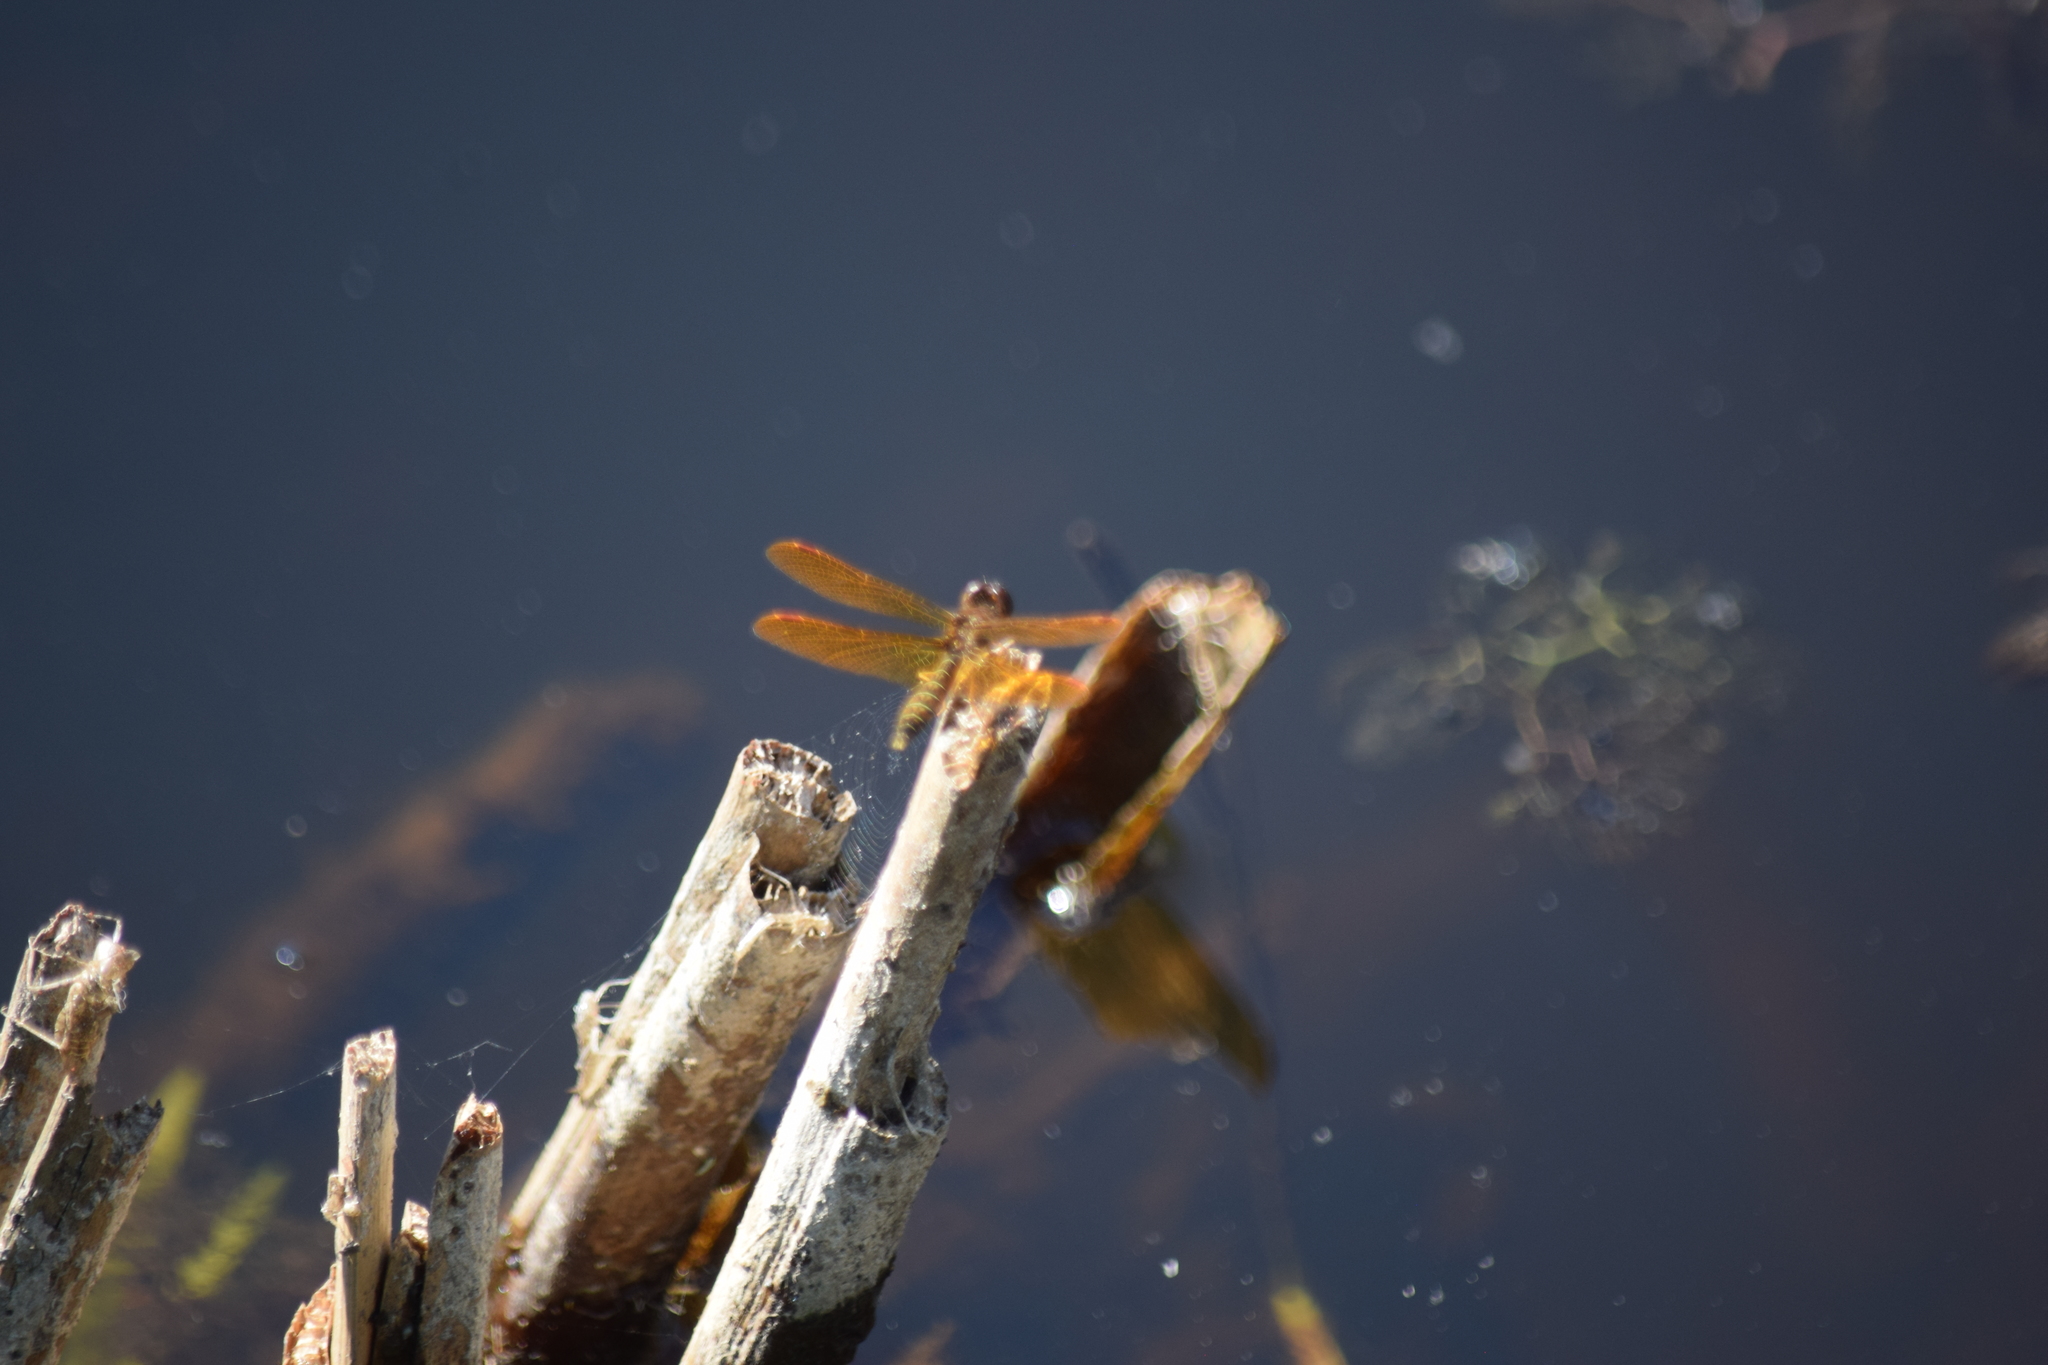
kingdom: Animalia
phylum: Arthropoda
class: Insecta
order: Odonata
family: Libellulidae
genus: Perithemis
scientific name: Perithemis tenera
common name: Eastern amberwing
